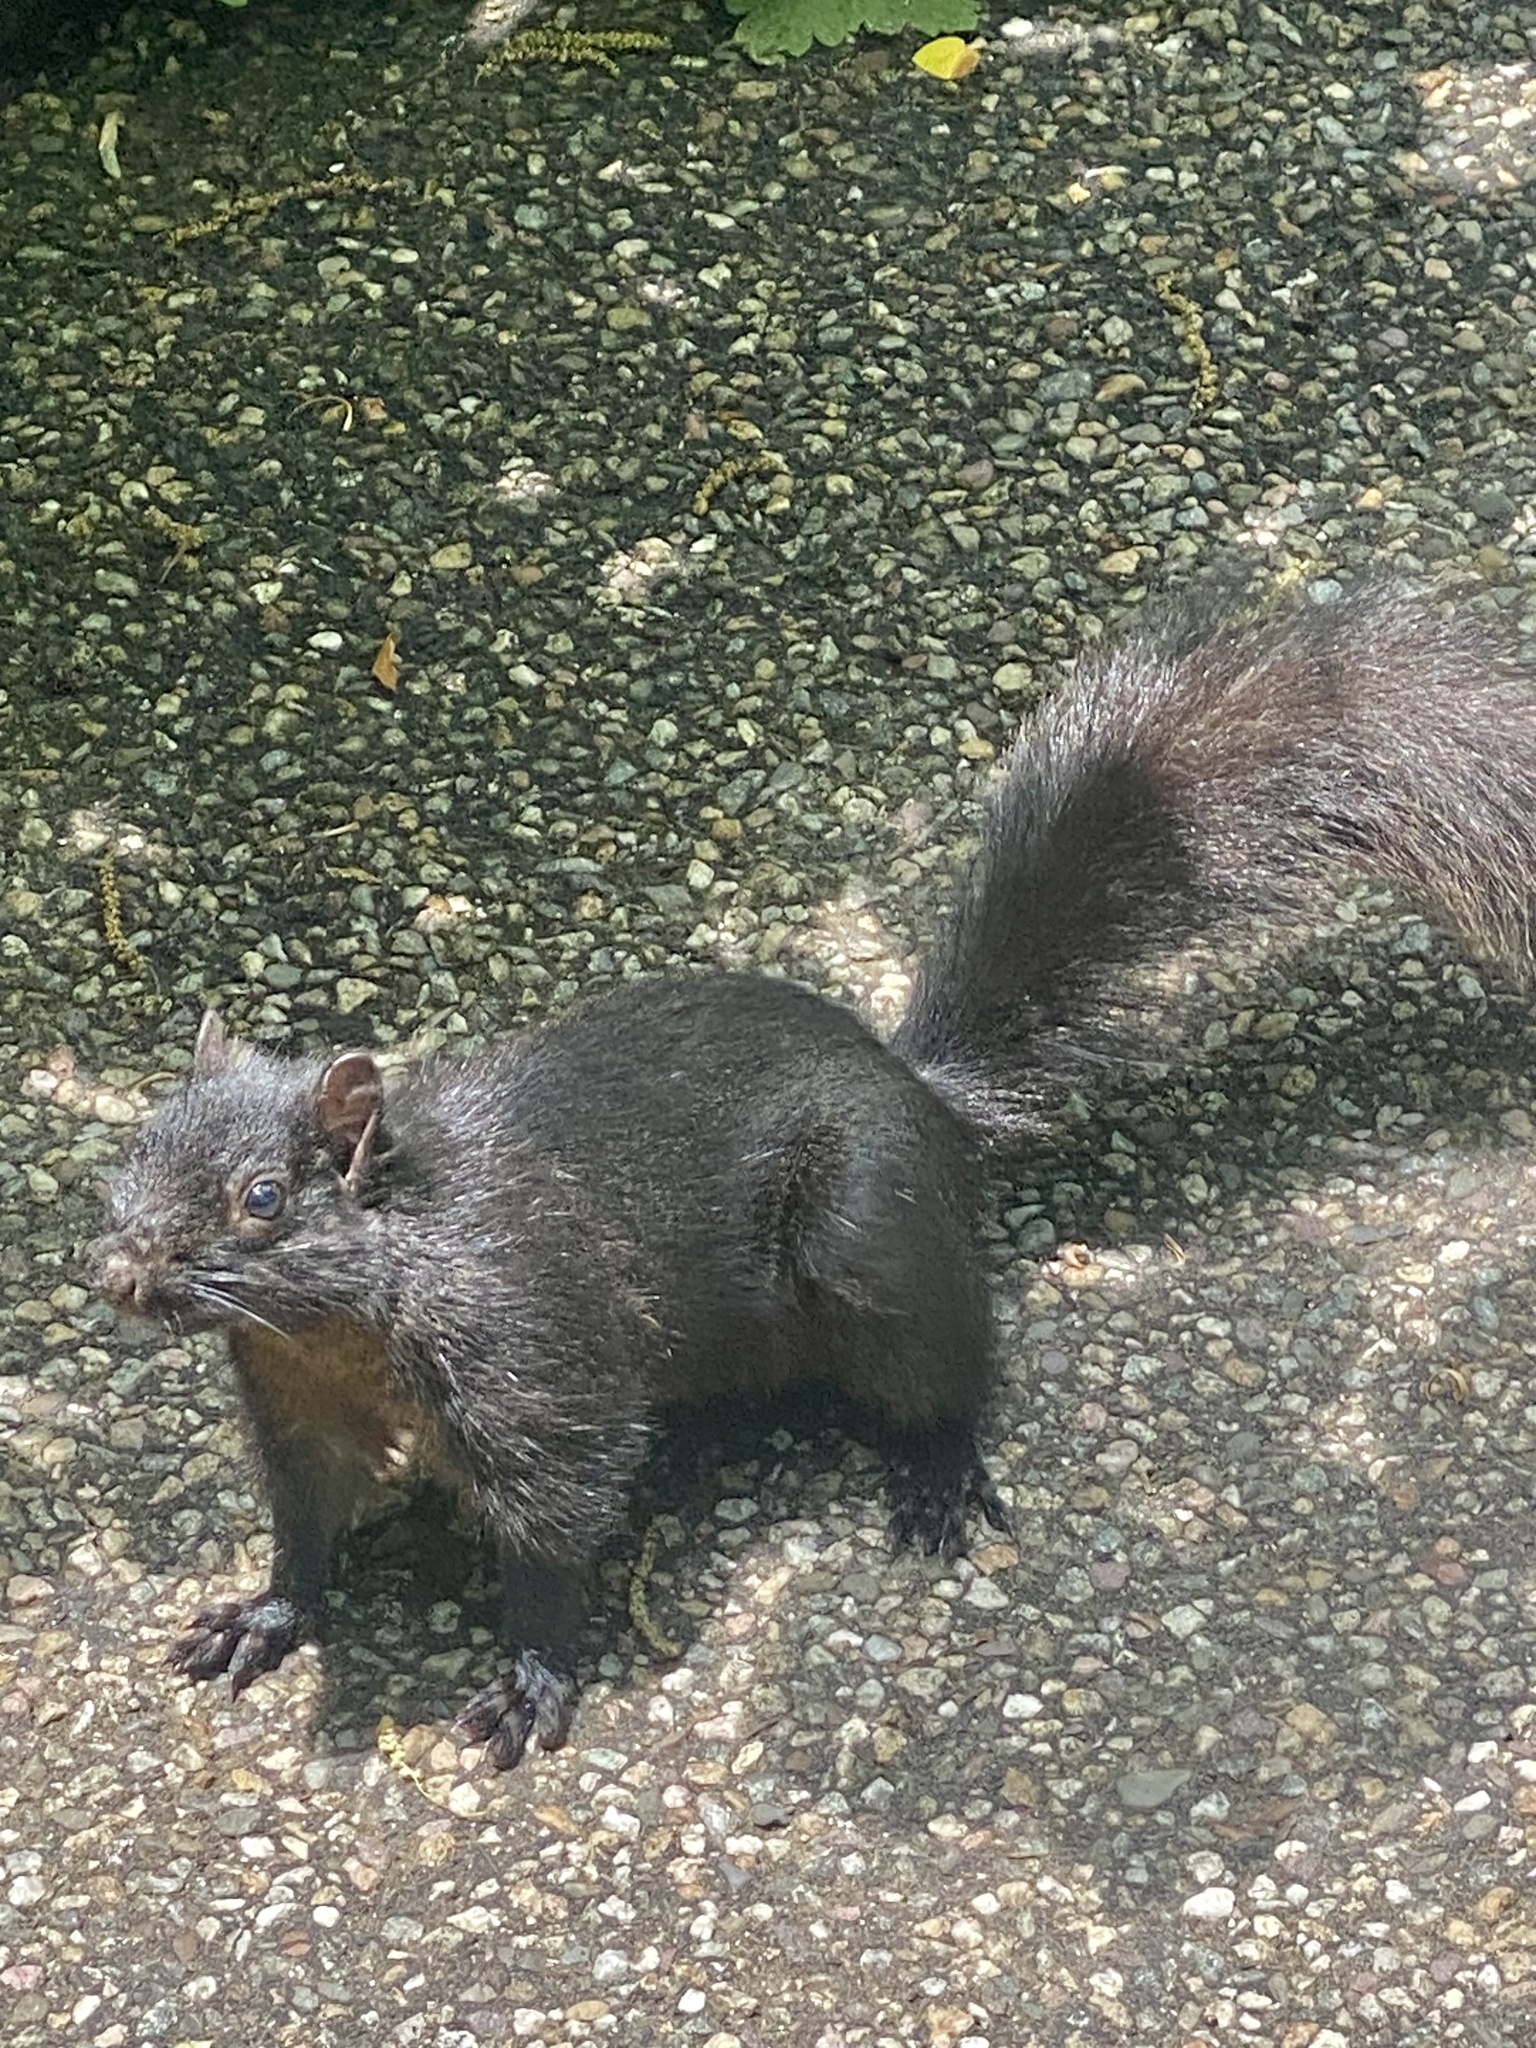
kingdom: Animalia
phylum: Chordata
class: Mammalia
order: Rodentia
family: Sciuridae
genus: Sciurus
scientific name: Sciurus carolinensis
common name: Eastern gray squirrel
